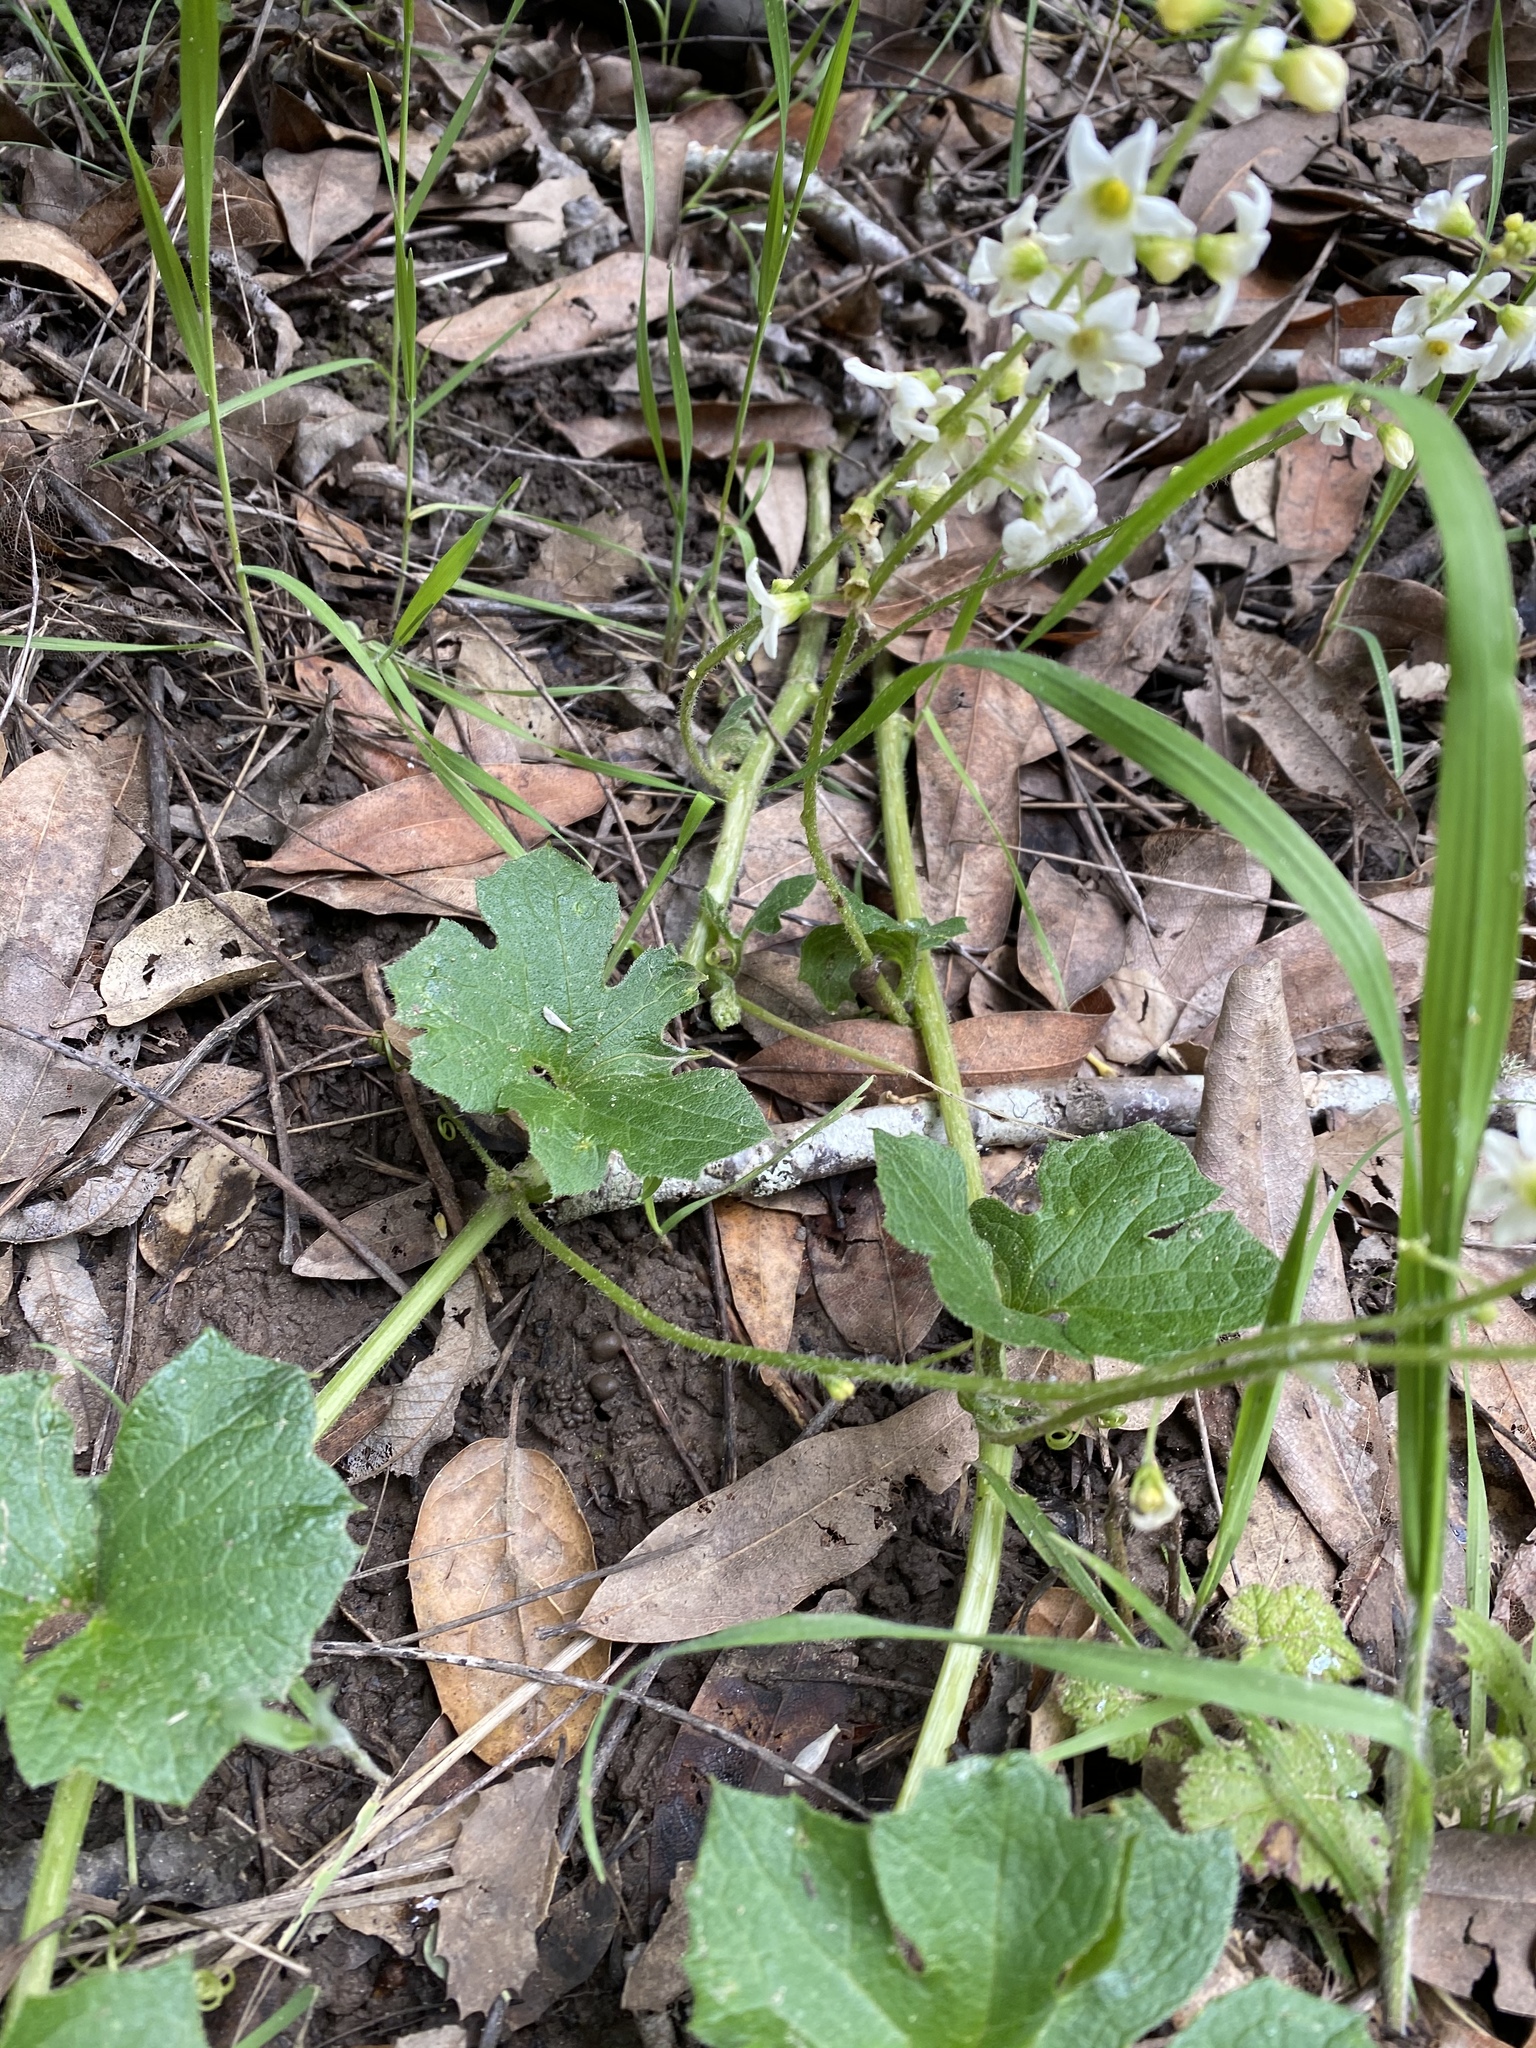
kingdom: Plantae
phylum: Tracheophyta
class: Magnoliopsida
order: Cucurbitales
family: Cucurbitaceae
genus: Marah
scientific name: Marah fabacea
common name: California manroot
